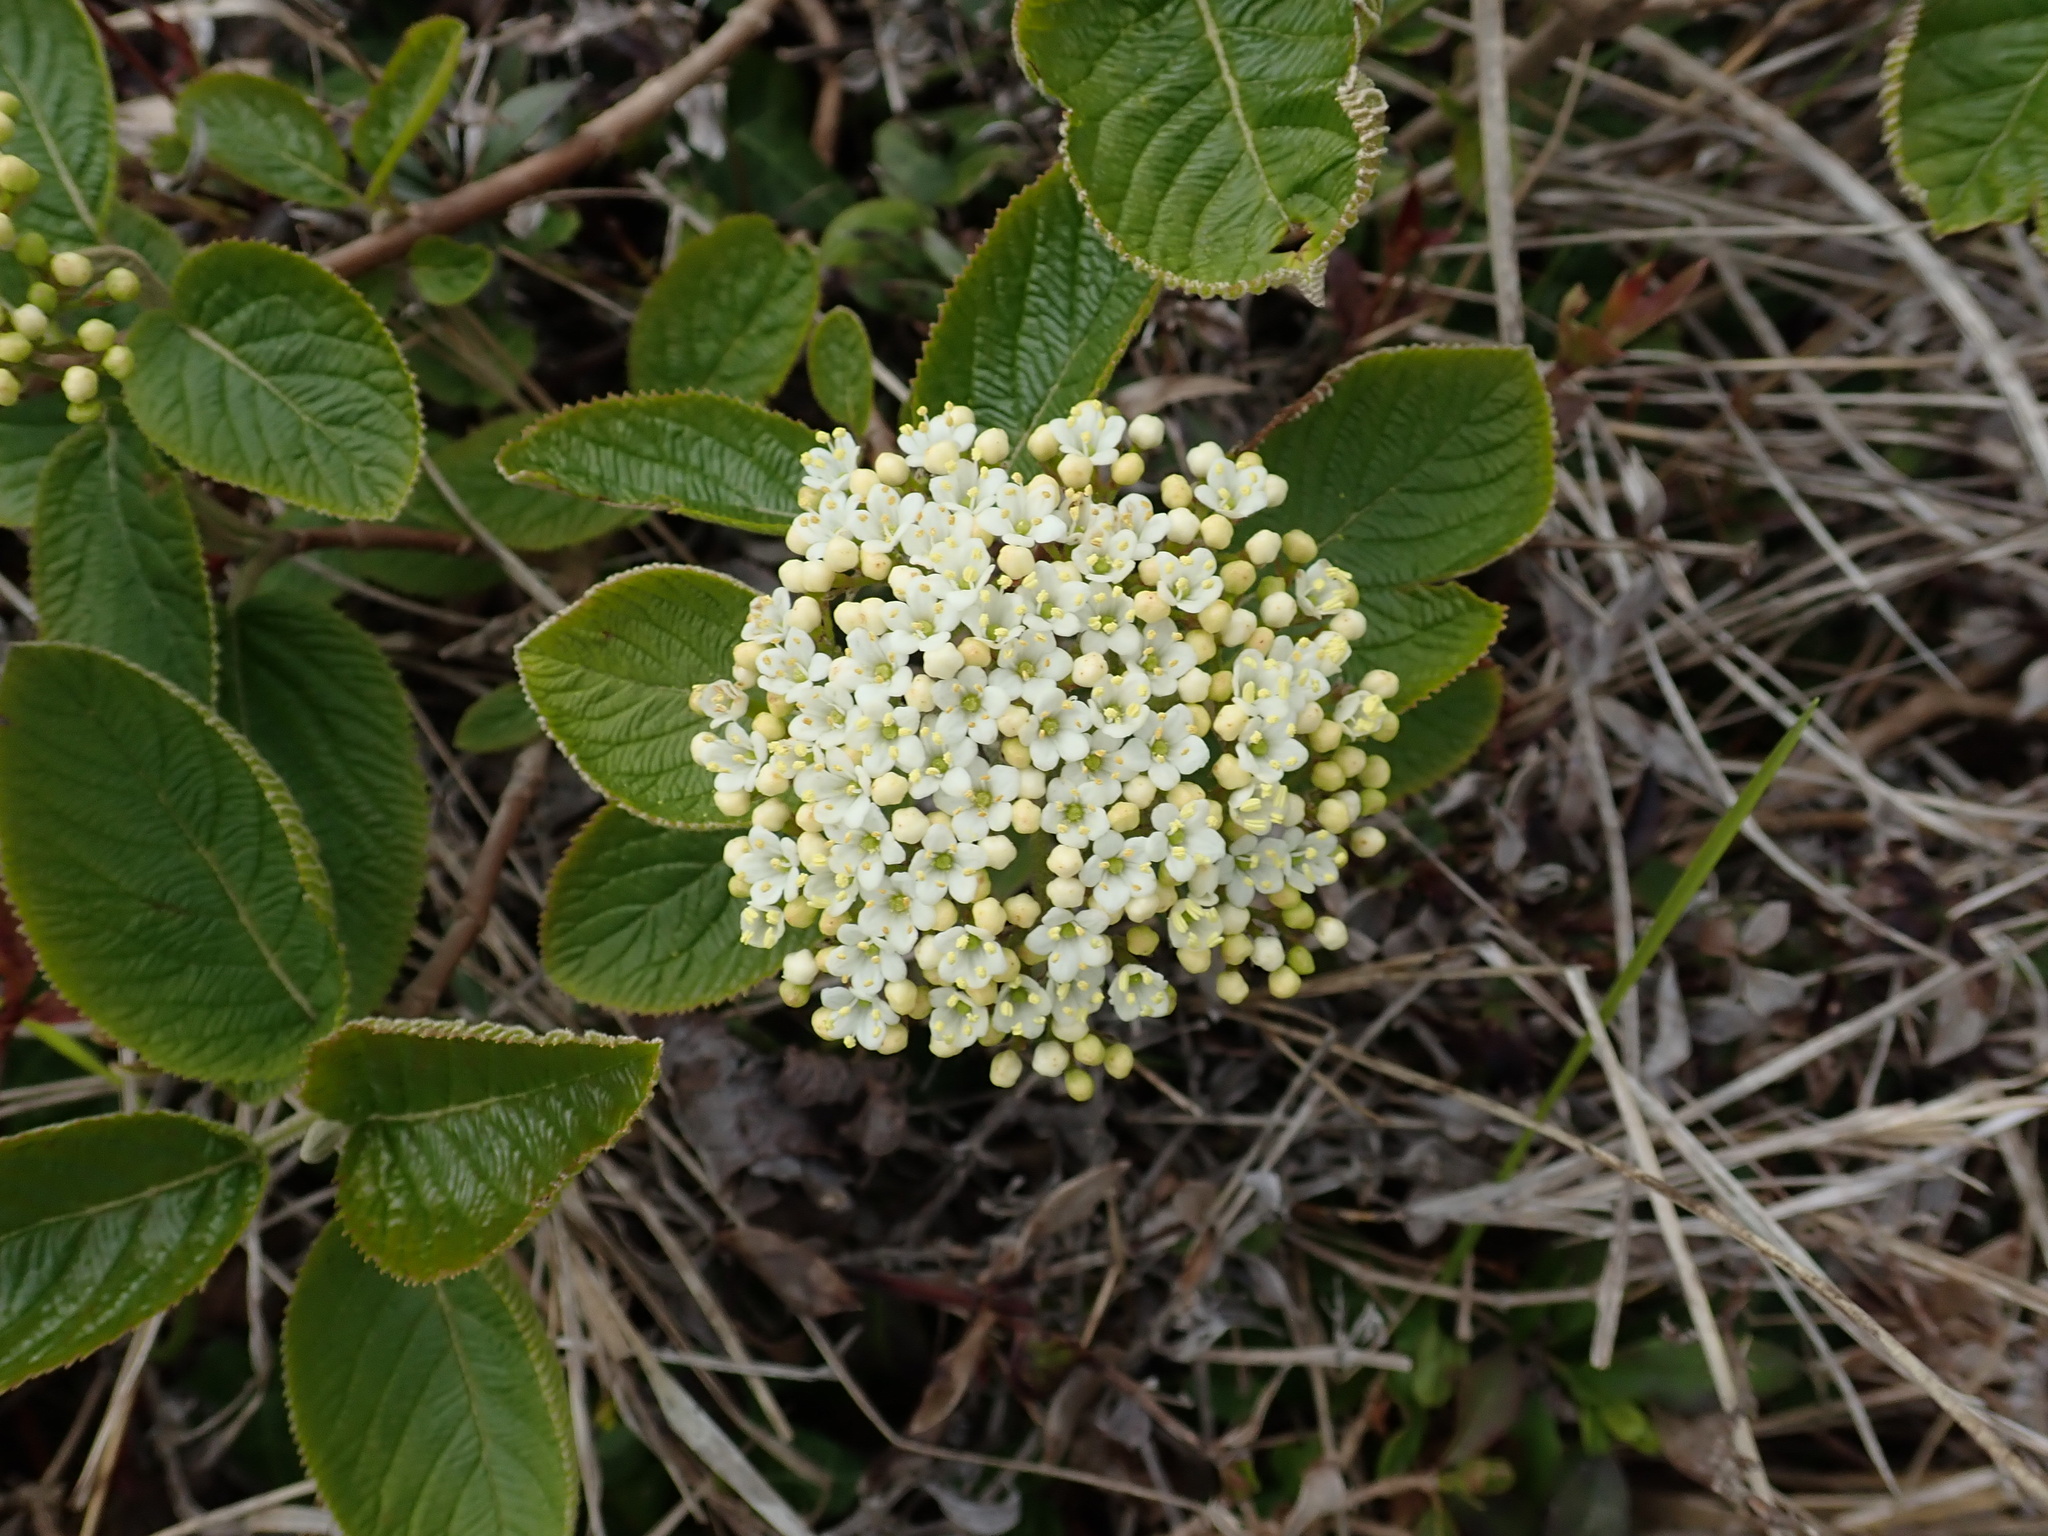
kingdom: Plantae
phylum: Tracheophyta
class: Magnoliopsida
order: Dipsacales
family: Viburnaceae
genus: Viburnum
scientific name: Viburnum lantana
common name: Wayfaring tree
